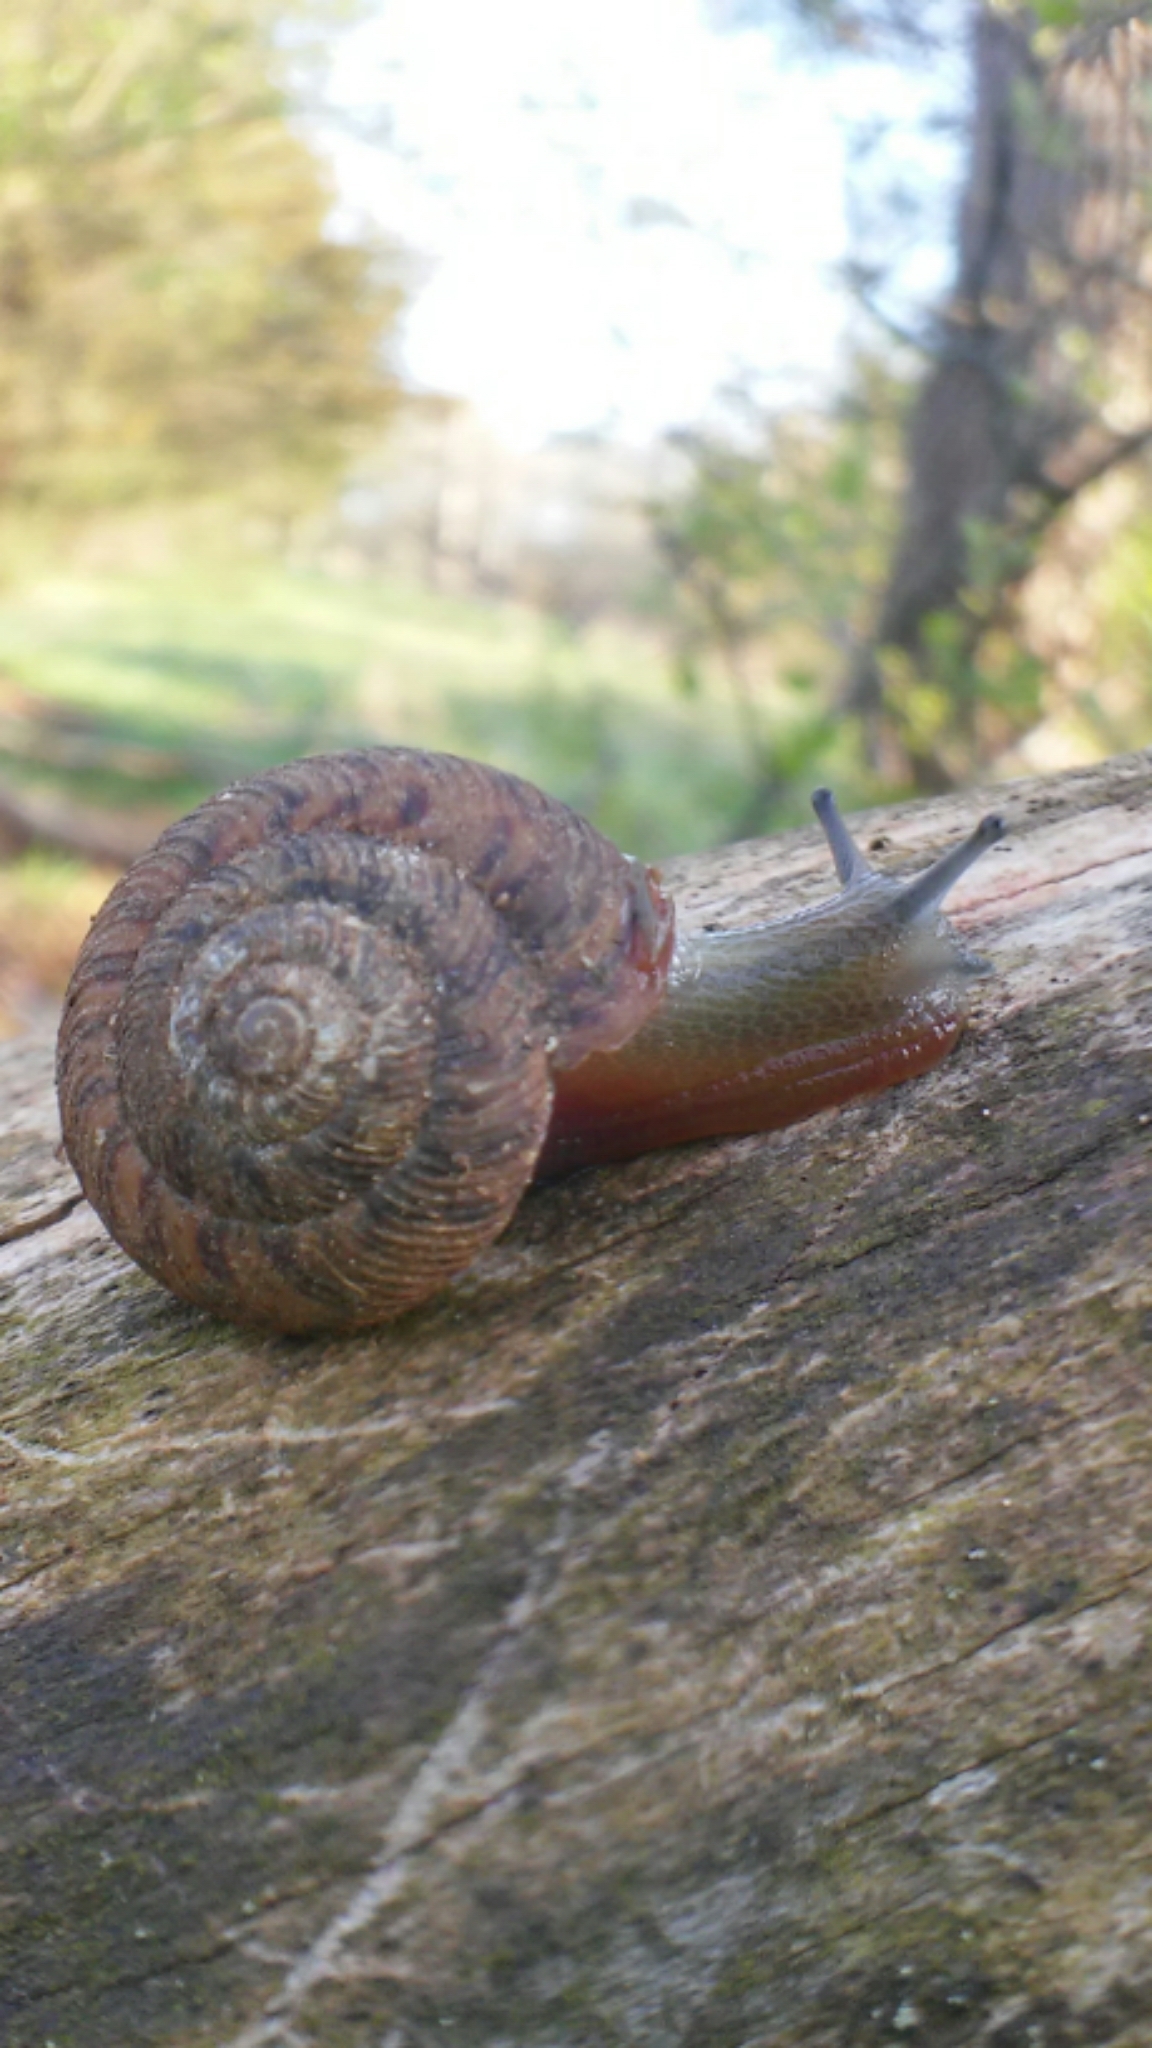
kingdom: Animalia
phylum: Mollusca
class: Gastropoda
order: Stylommatophora
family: Discidae
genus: Anguispira
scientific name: Anguispira alternata
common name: Flamed tigersnail
